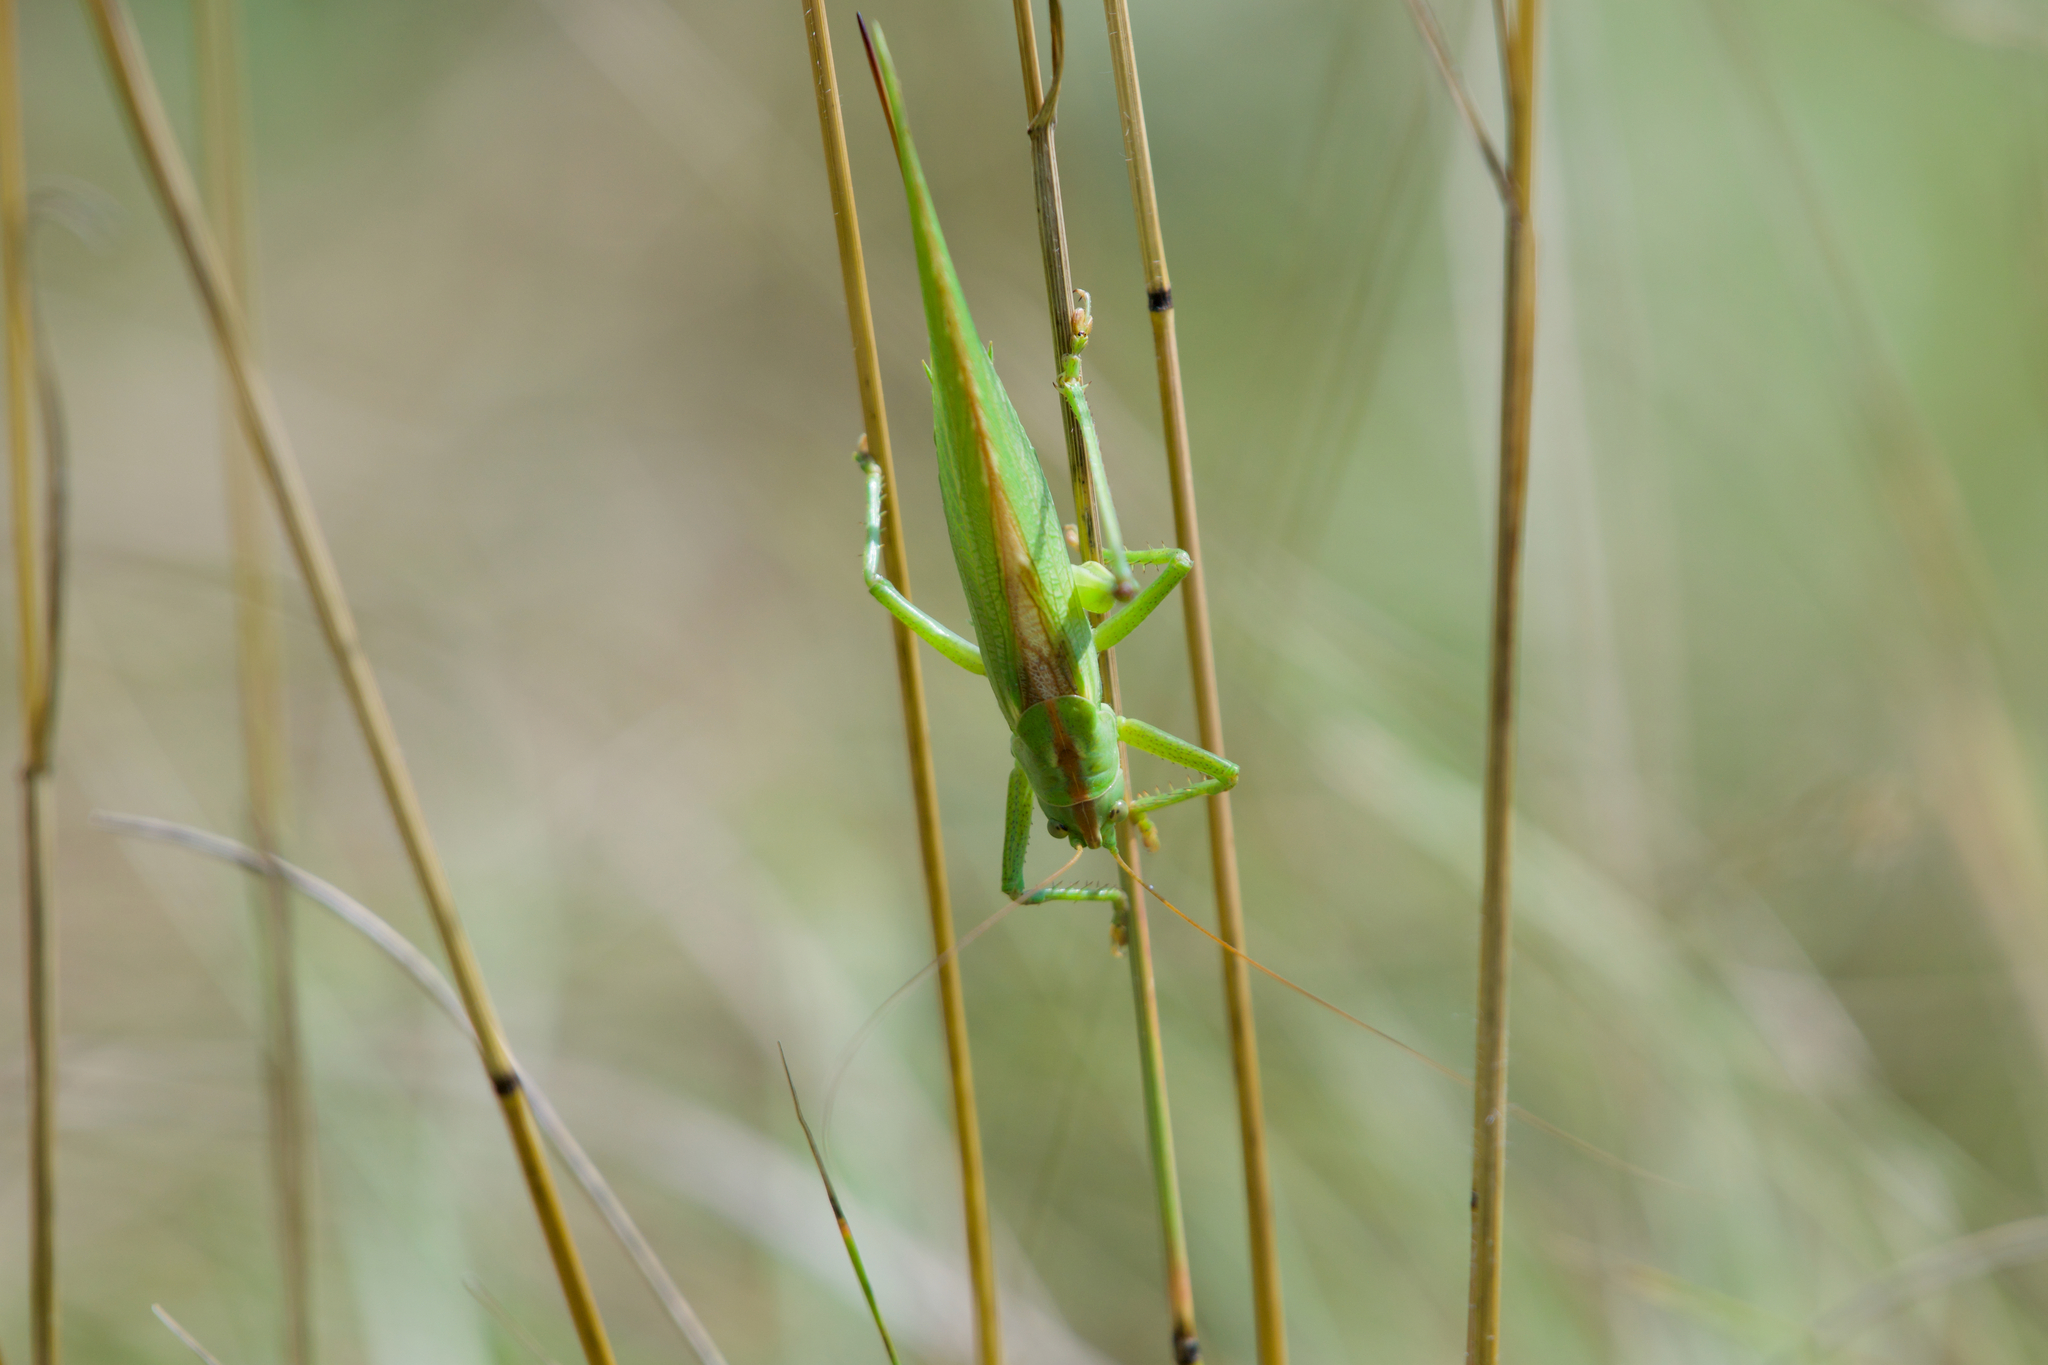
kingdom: Animalia
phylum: Arthropoda
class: Insecta
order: Orthoptera
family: Tettigoniidae
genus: Tettigonia
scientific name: Tettigonia viridissima
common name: Great green bush-cricket
